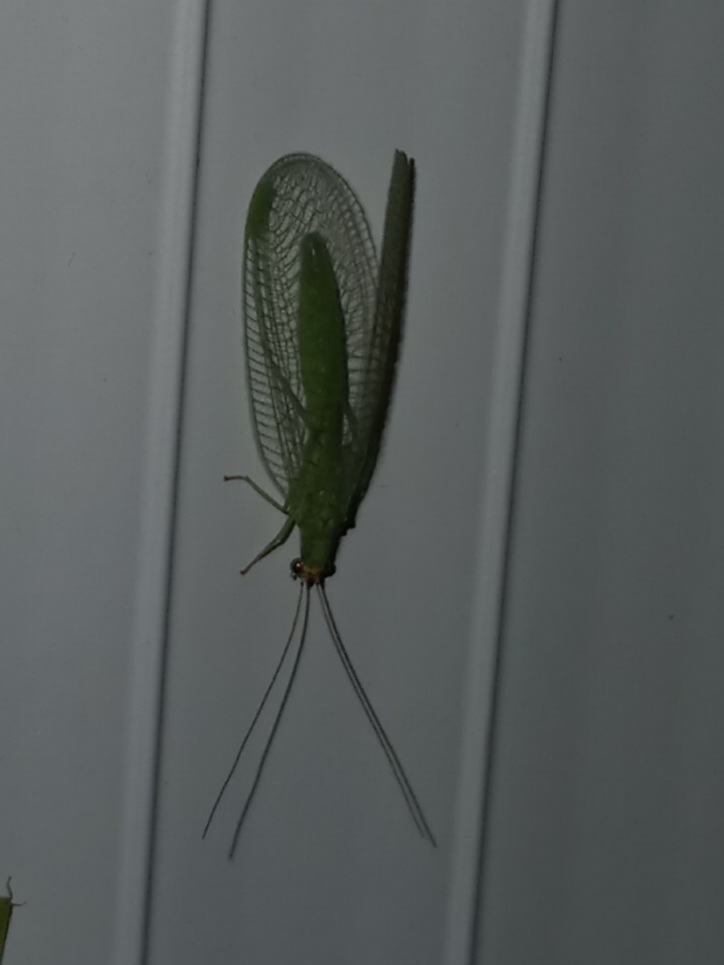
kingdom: Animalia
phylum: Arthropoda
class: Insecta
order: Neuroptera
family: Chrysopidae
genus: Chrysopa
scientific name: Chrysopa oculata
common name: Golden-eyed lacewing
